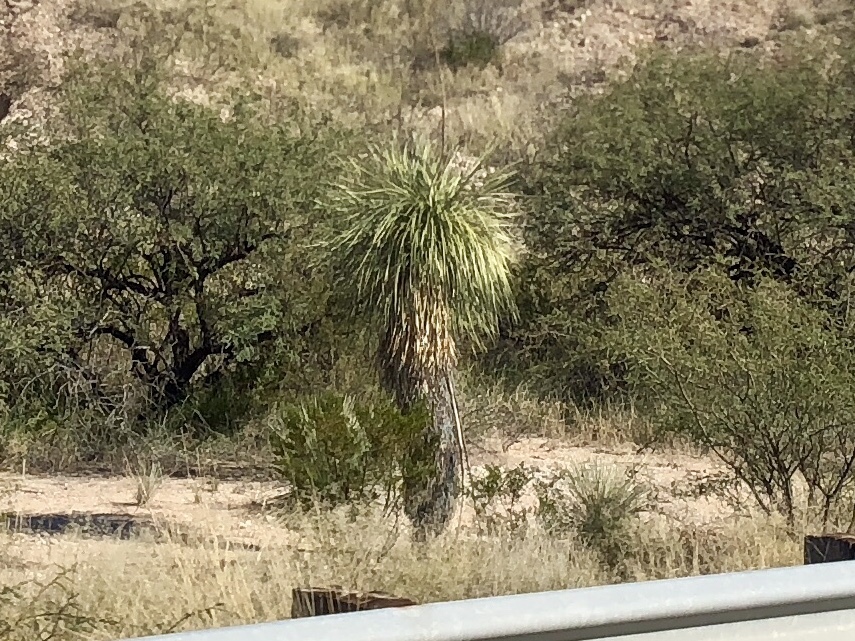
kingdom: Plantae
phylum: Tracheophyta
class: Liliopsida
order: Asparagales
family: Asparagaceae
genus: Yucca
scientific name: Yucca elata
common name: Palmella
